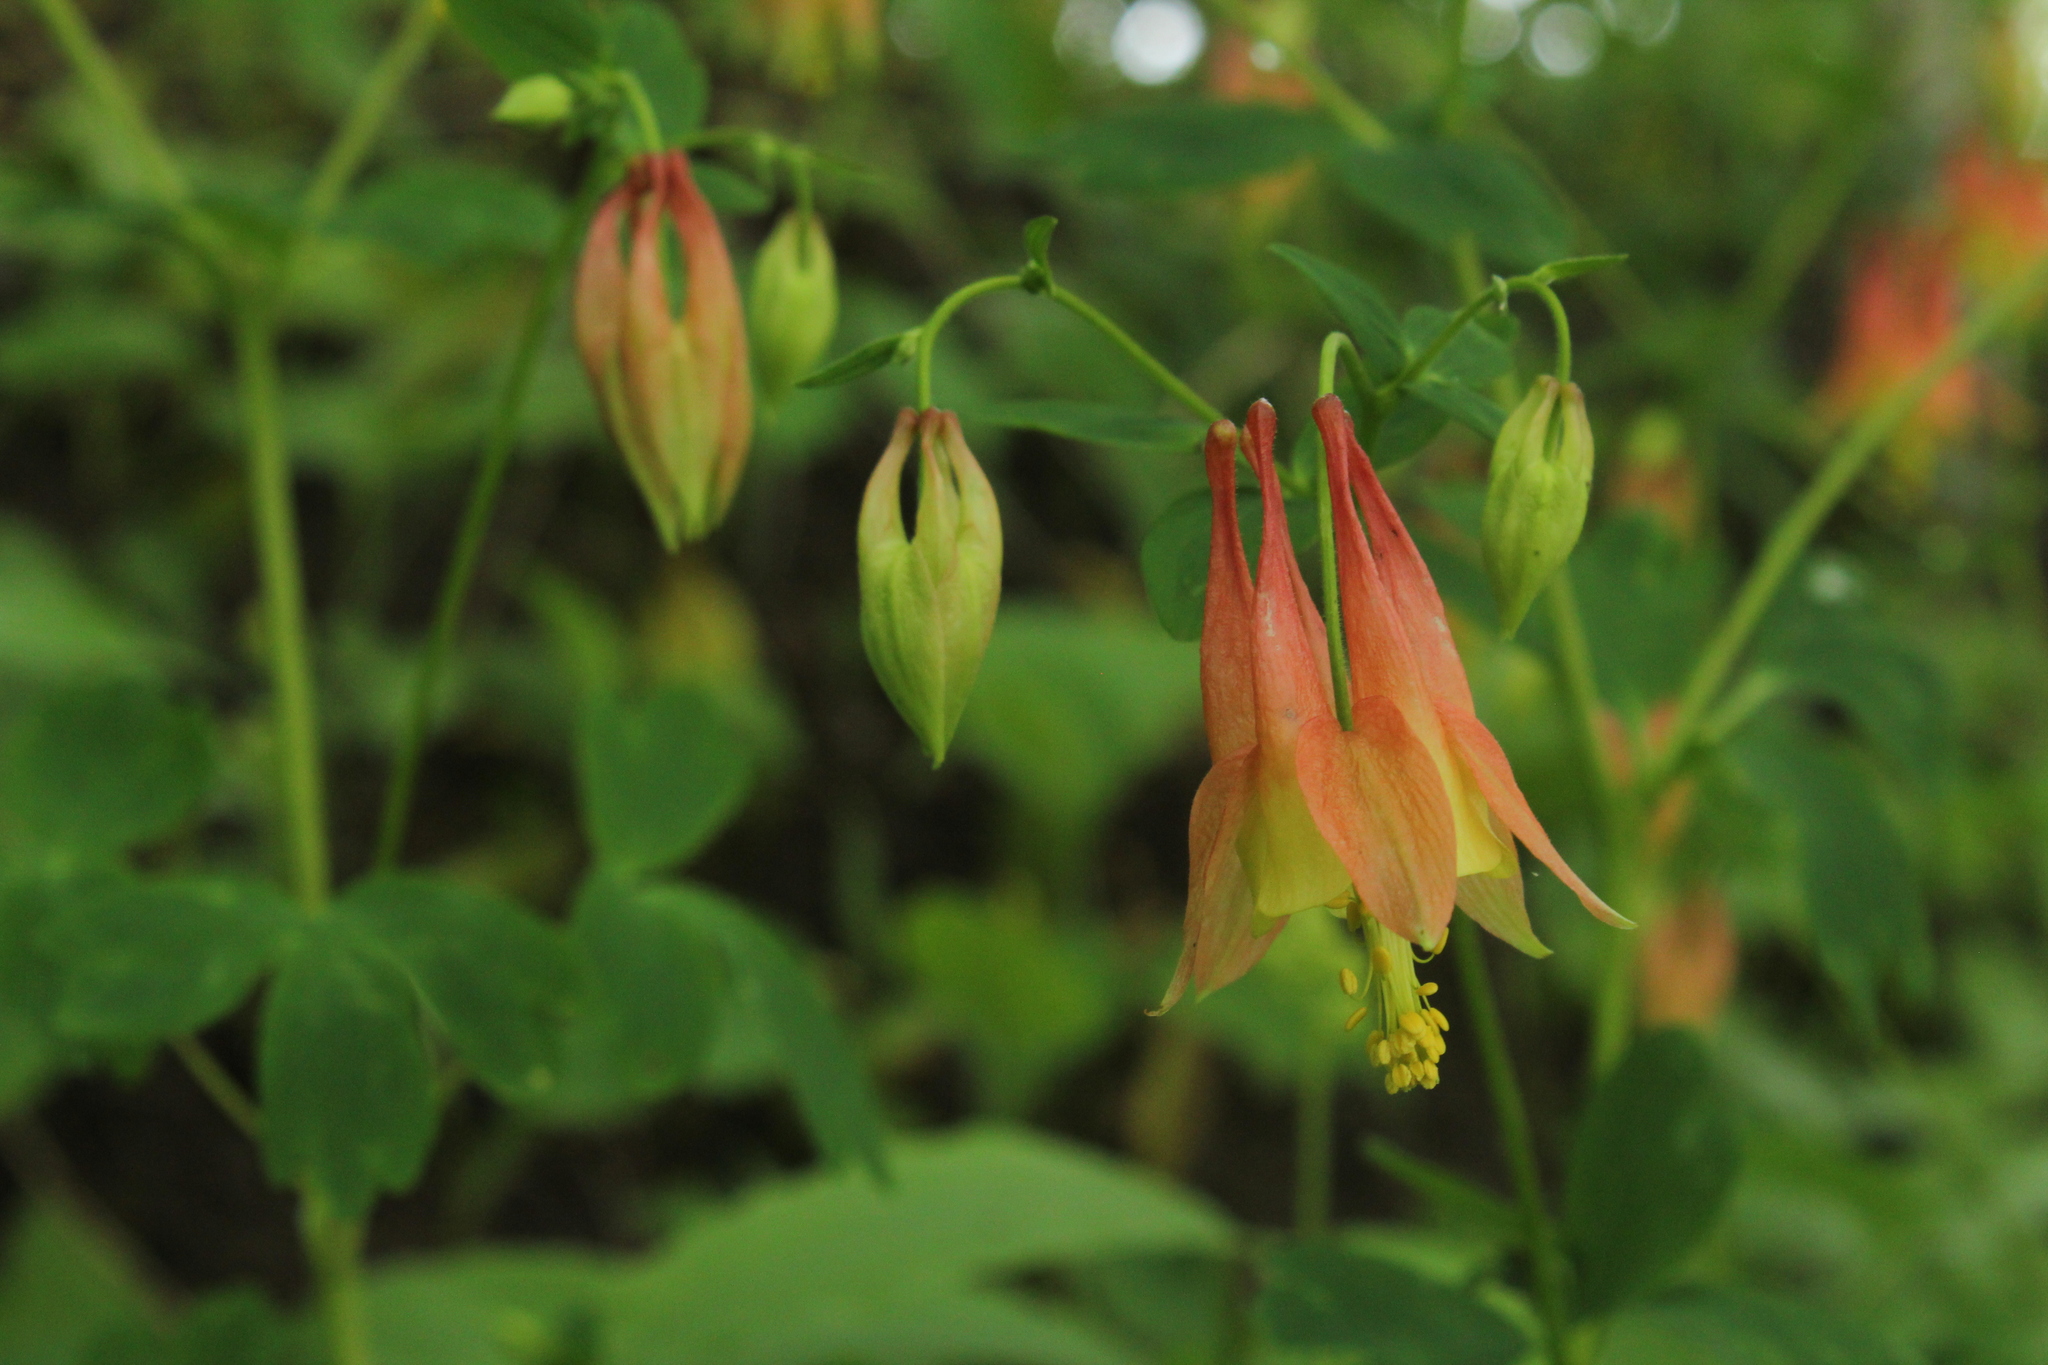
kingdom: Plantae
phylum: Tracheophyta
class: Magnoliopsida
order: Ranunculales
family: Ranunculaceae
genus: Aquilegia
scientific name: Aquilegia canadensis
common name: American columbine
